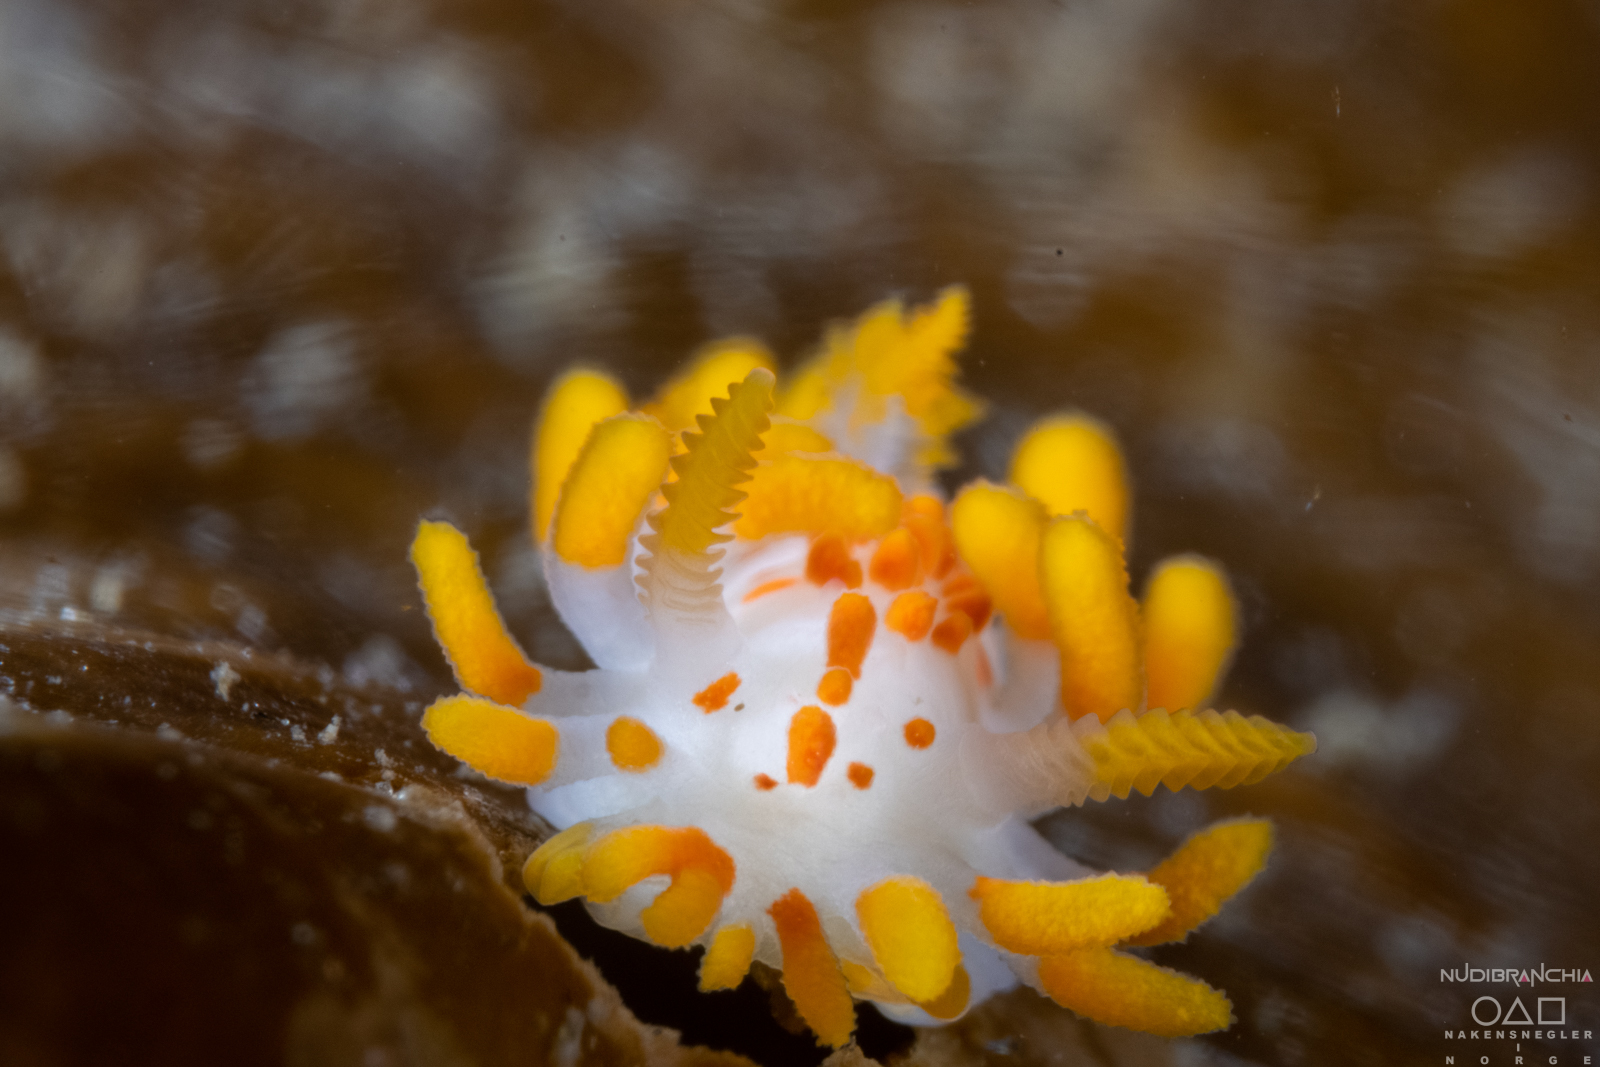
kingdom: Animalia
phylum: Mollusca
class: Gastropoda
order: Nudibranchia
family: Polyceridae
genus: Limacia
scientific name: Limacia clavigera
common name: Orange-clubbed sea slug
